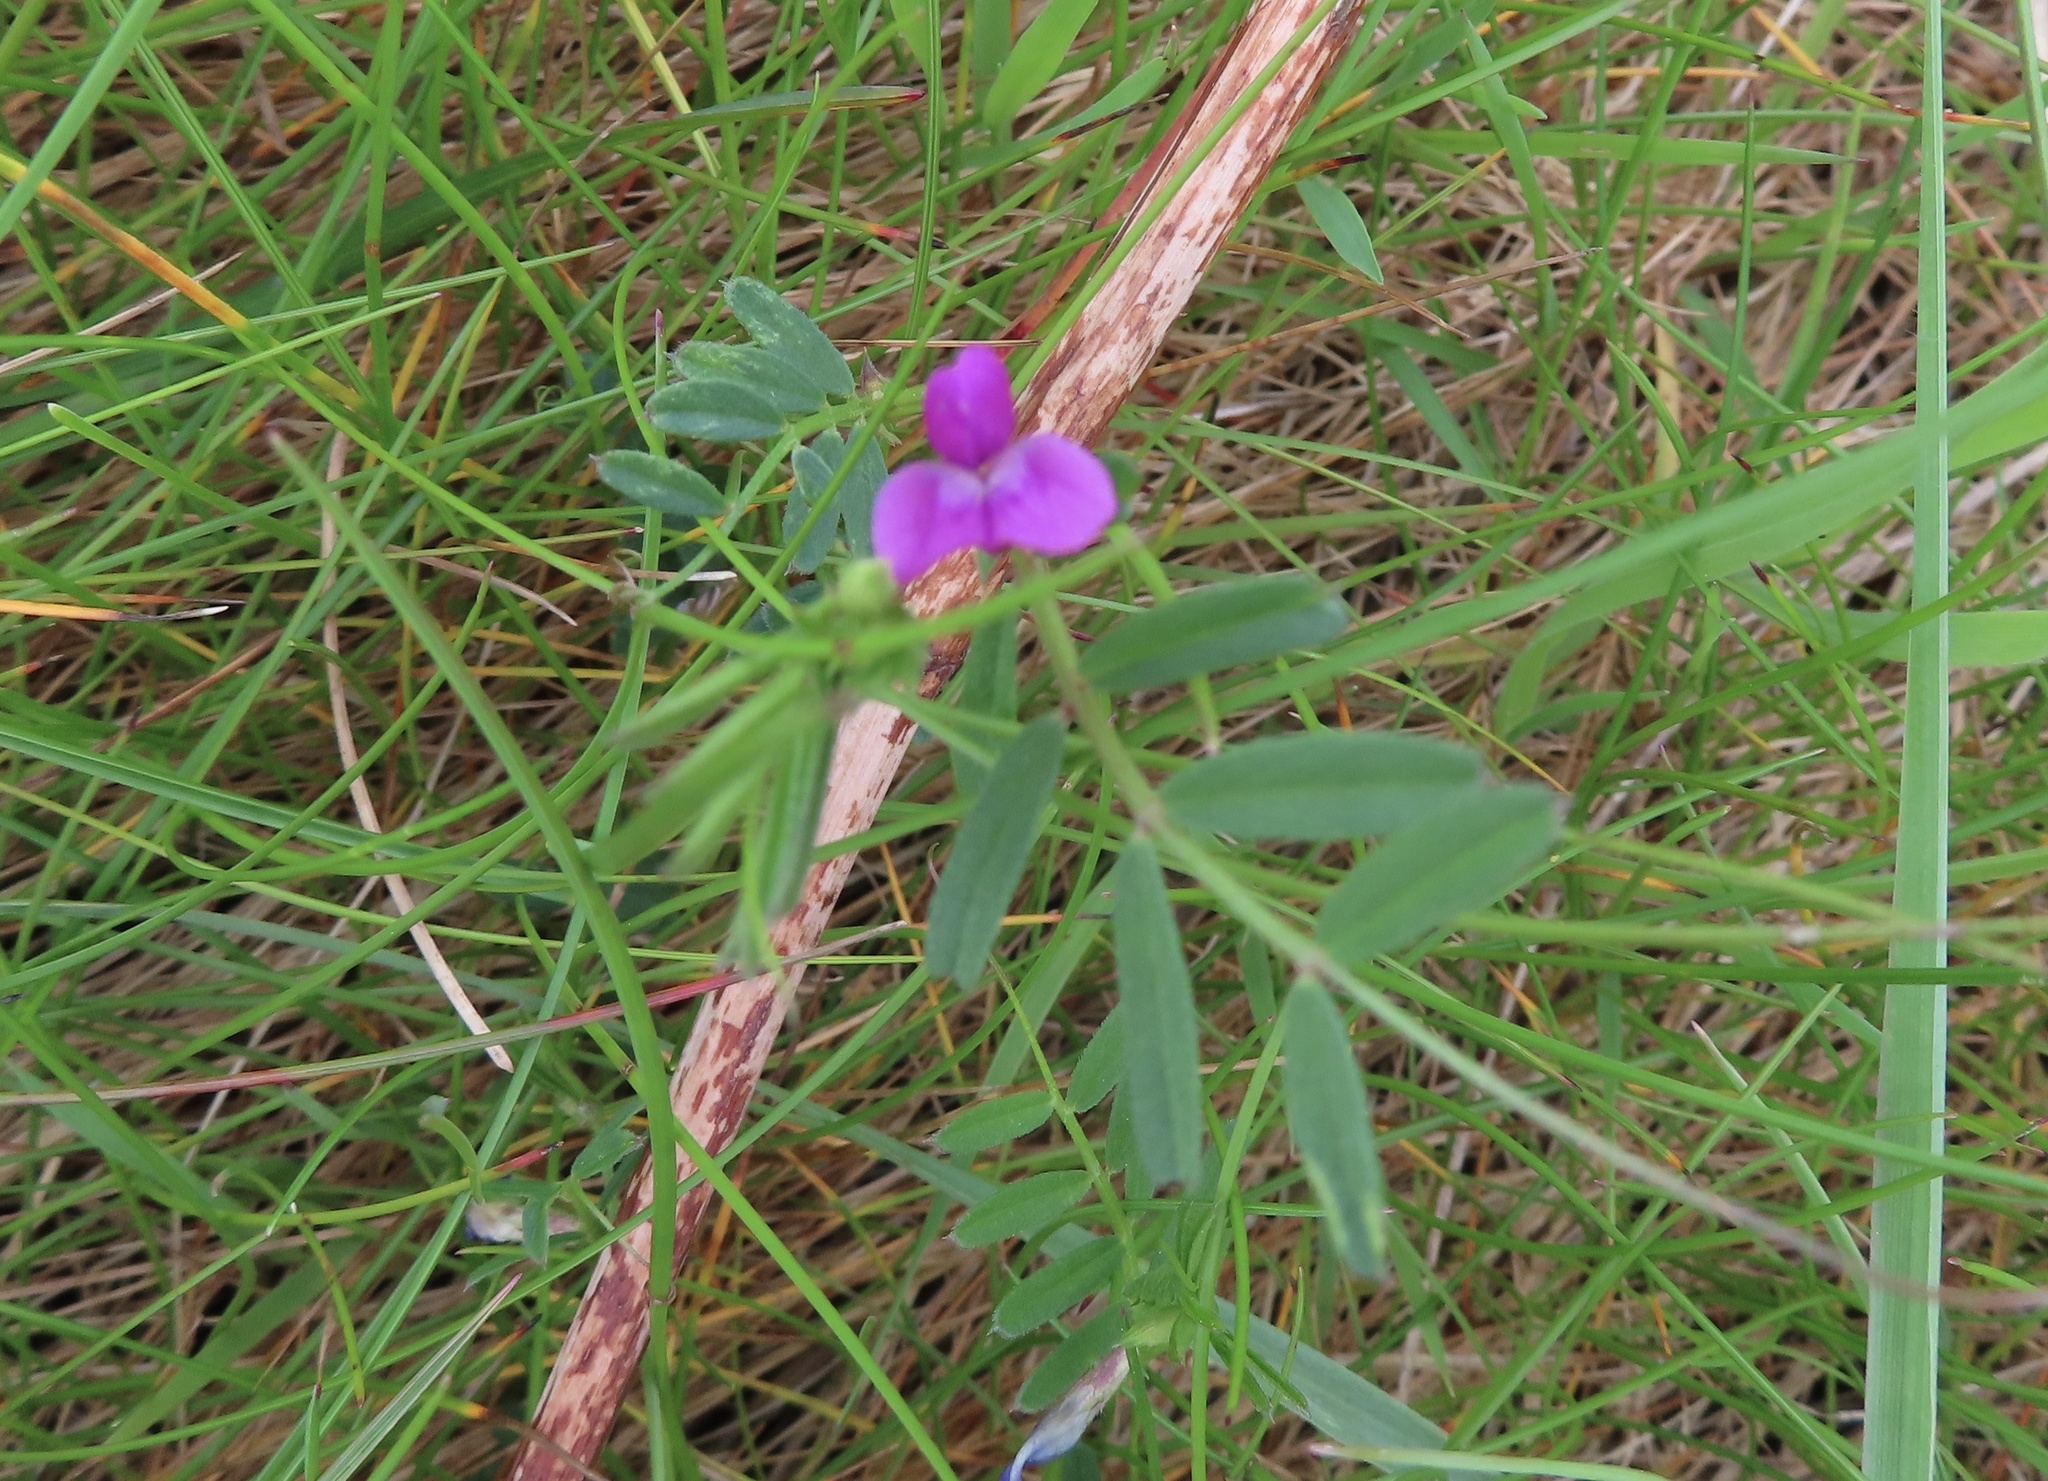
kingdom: Plantae
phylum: Tracheophyta
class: Magnoliopsida
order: Fabales
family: Fabaceae
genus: Vicia
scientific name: Vicia sativa
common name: Garden vetch
